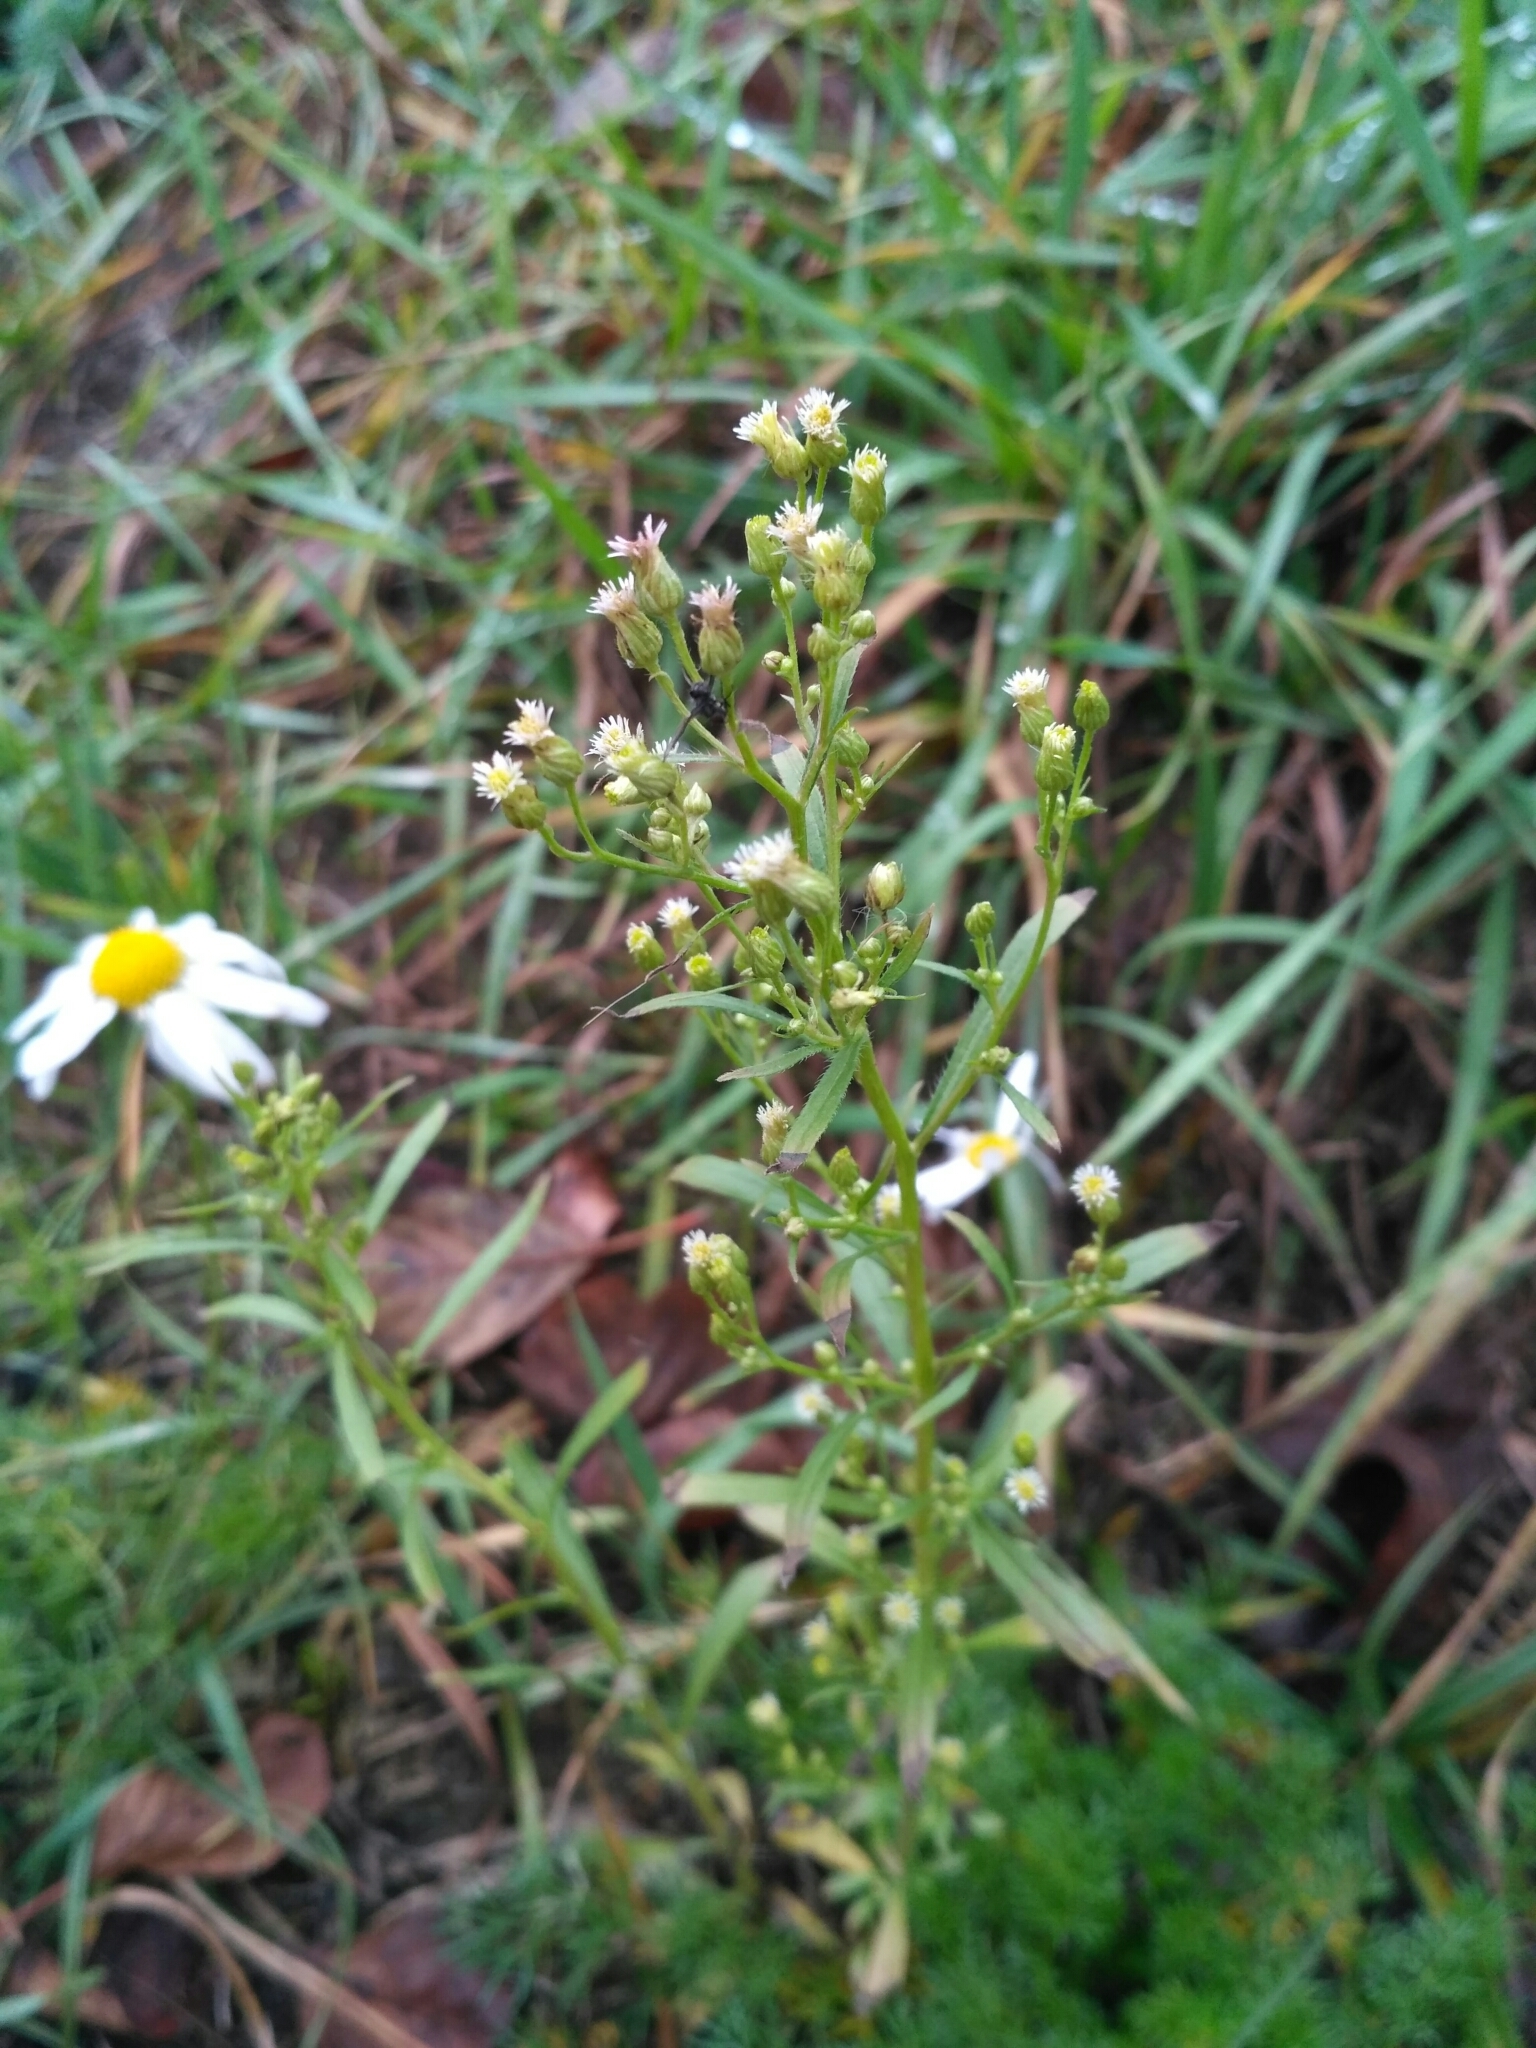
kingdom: Plantae
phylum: Tracheophyta
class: Magnoliopsida
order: Asterales
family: Asteraceae
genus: Erigeron
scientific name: Erigeron canadensis
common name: Canadian fleabane
